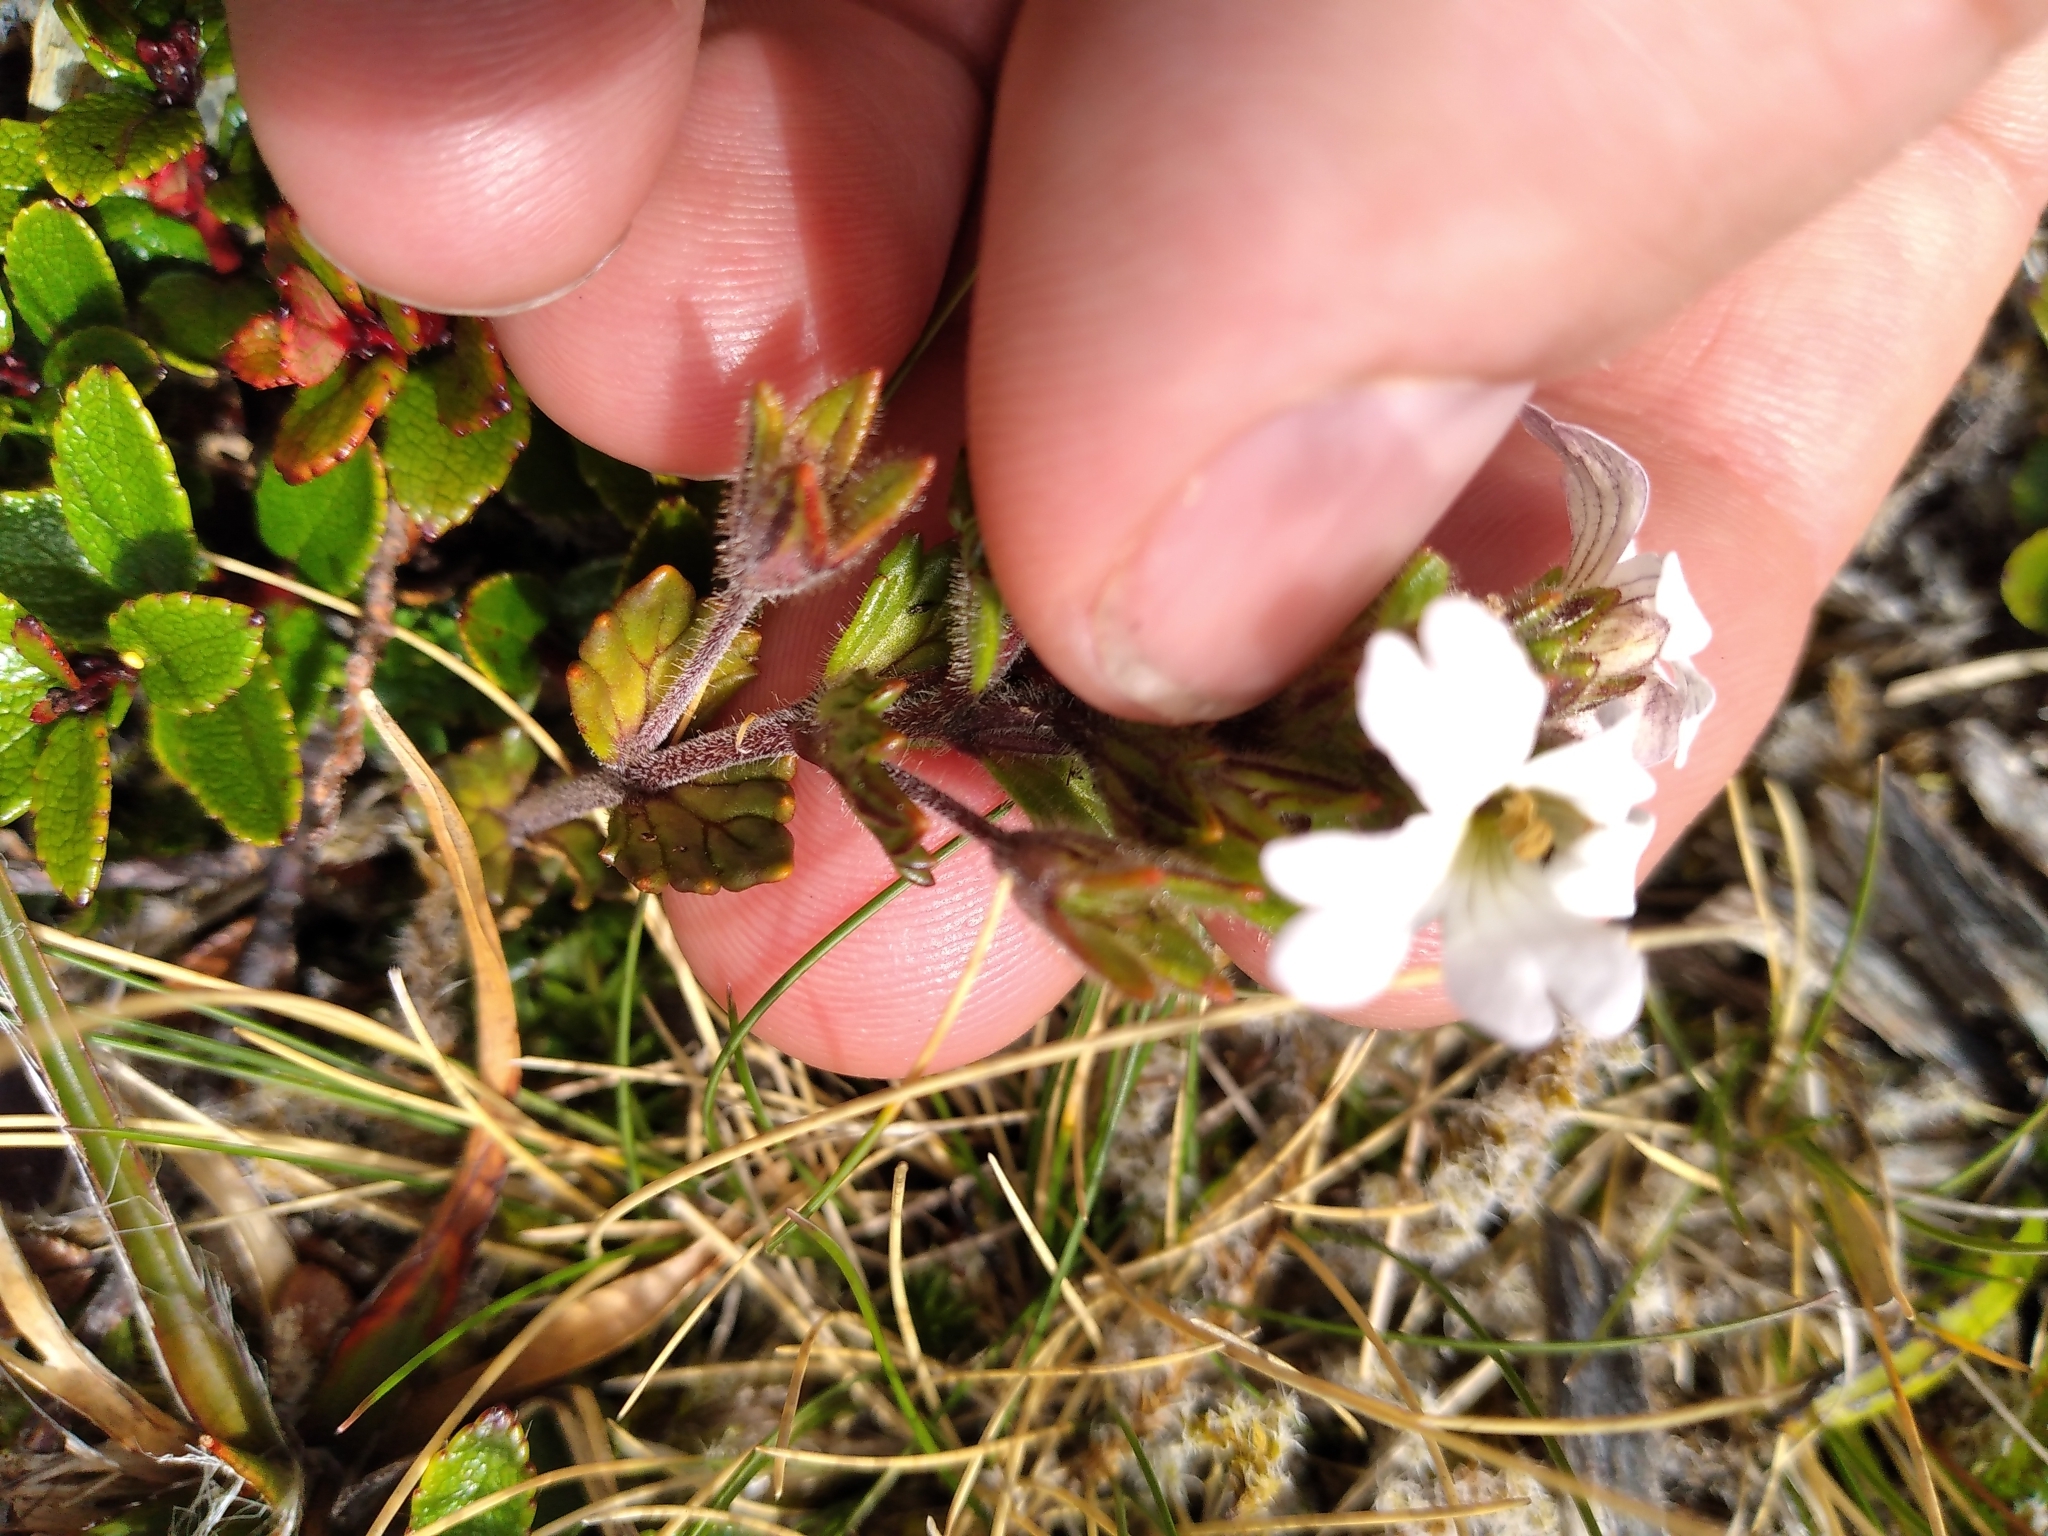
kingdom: Plantae
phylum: Tracheophyta
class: Magnoliopsida
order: Lamiales
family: Orobanchaceae
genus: Euphrasia
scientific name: Euphrasia townsonii
